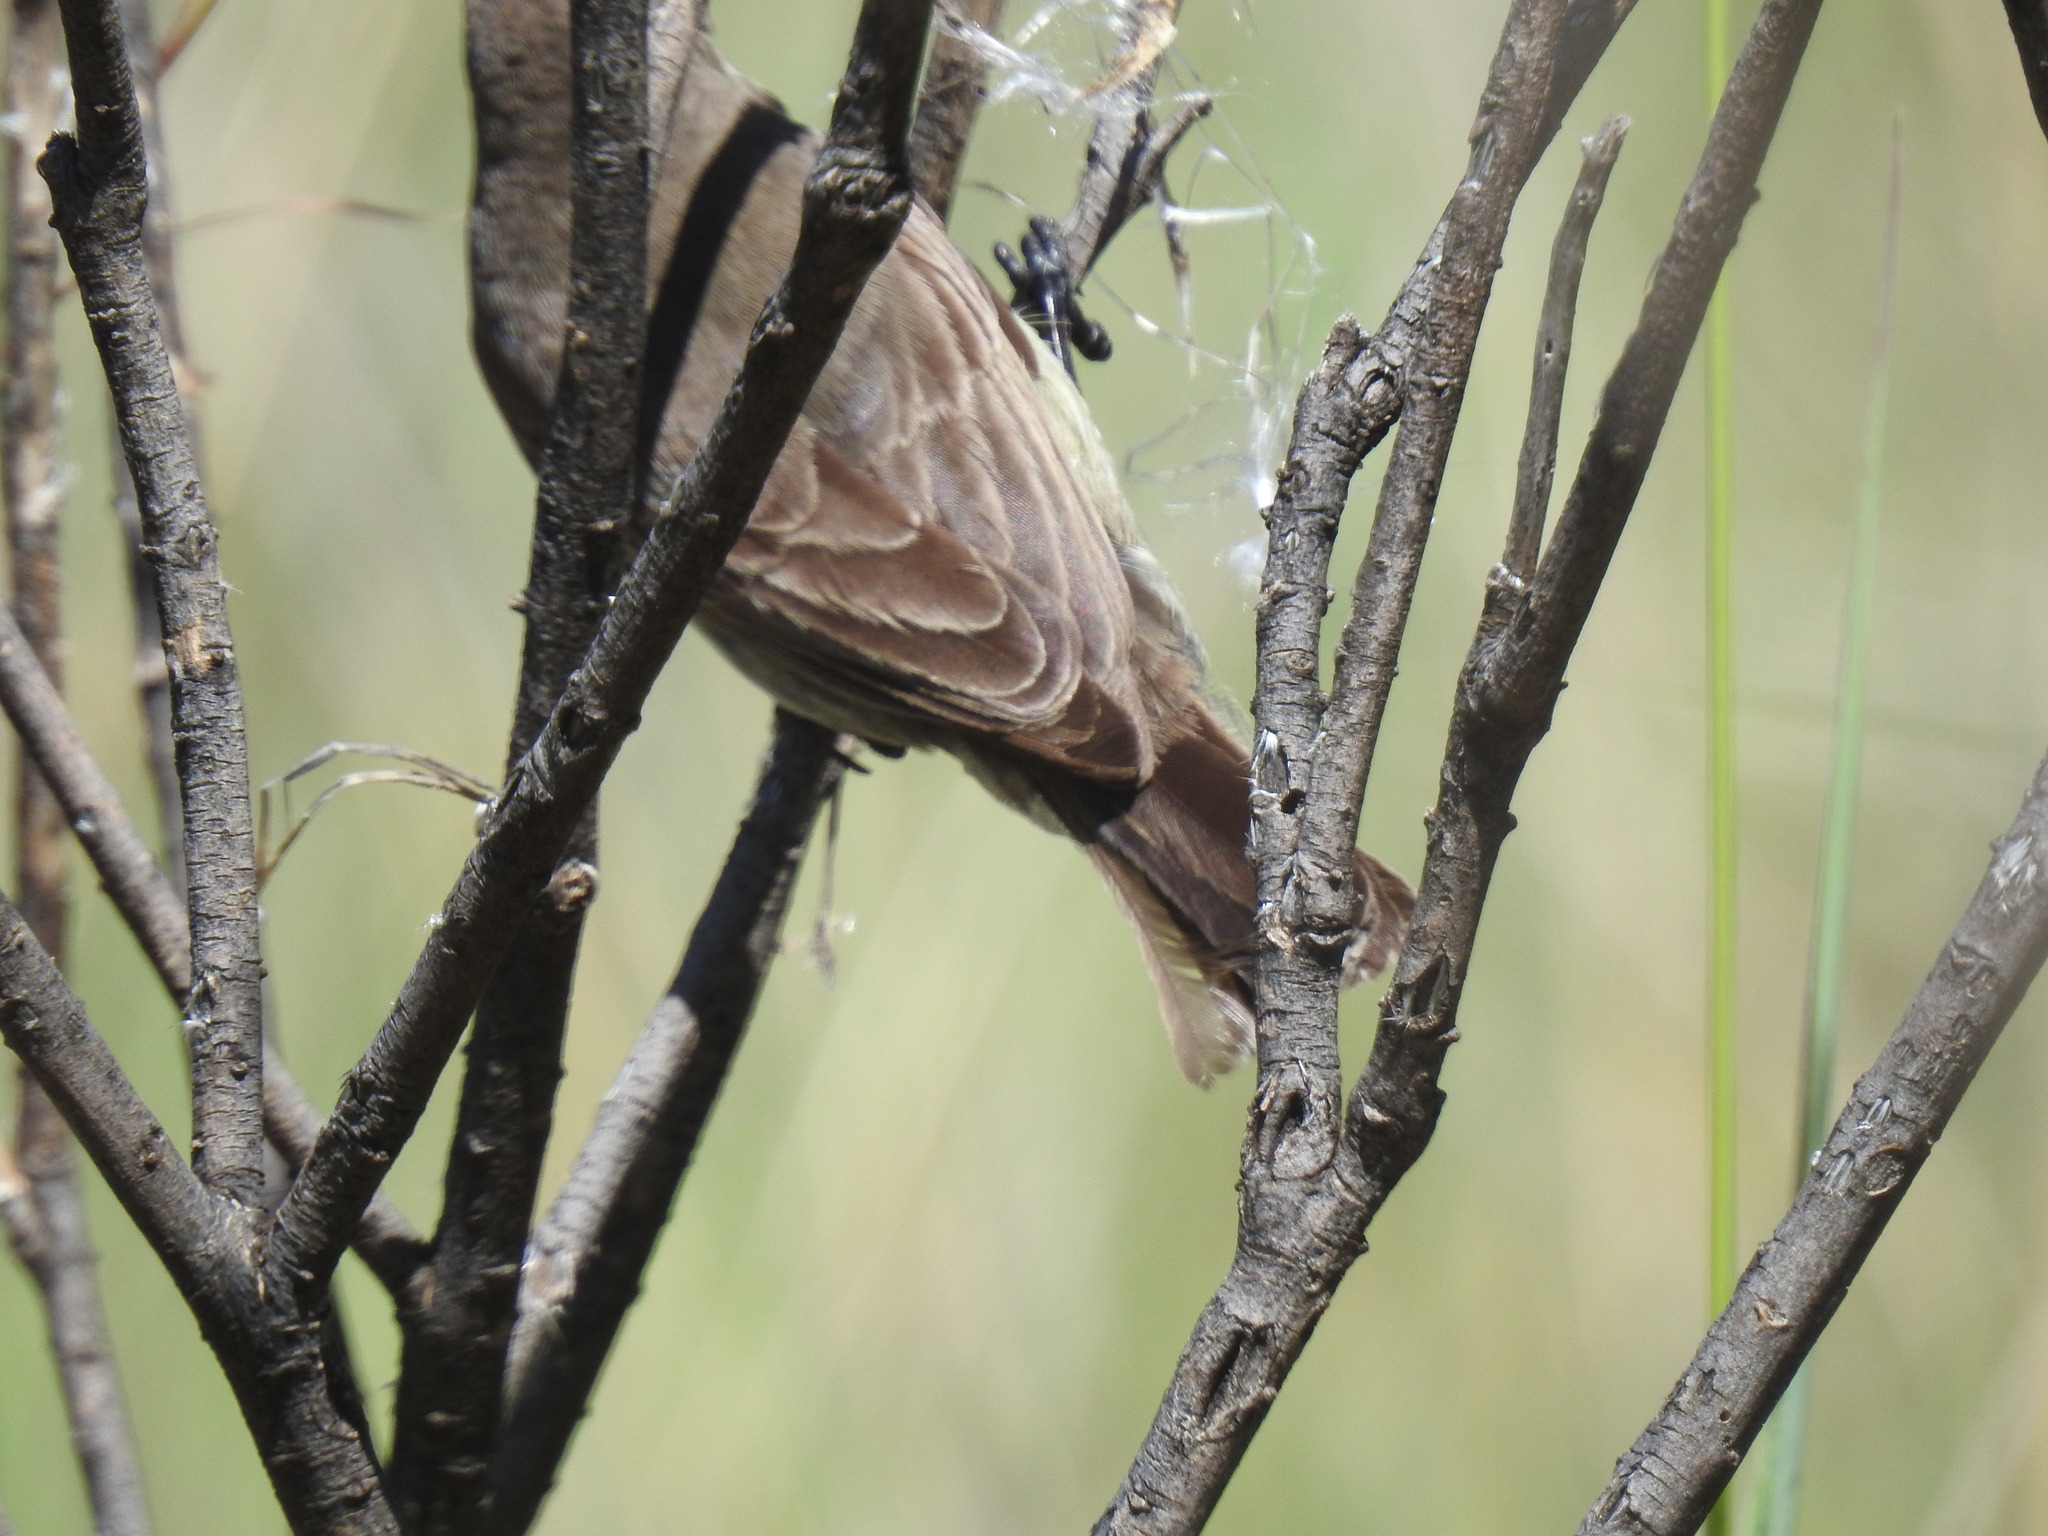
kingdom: Animalia
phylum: Chordata
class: Aves
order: Passeriformes
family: Nectariniidae
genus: Chalcomitra
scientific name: Chalcomitra amethystina
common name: Amethyst sunbird
